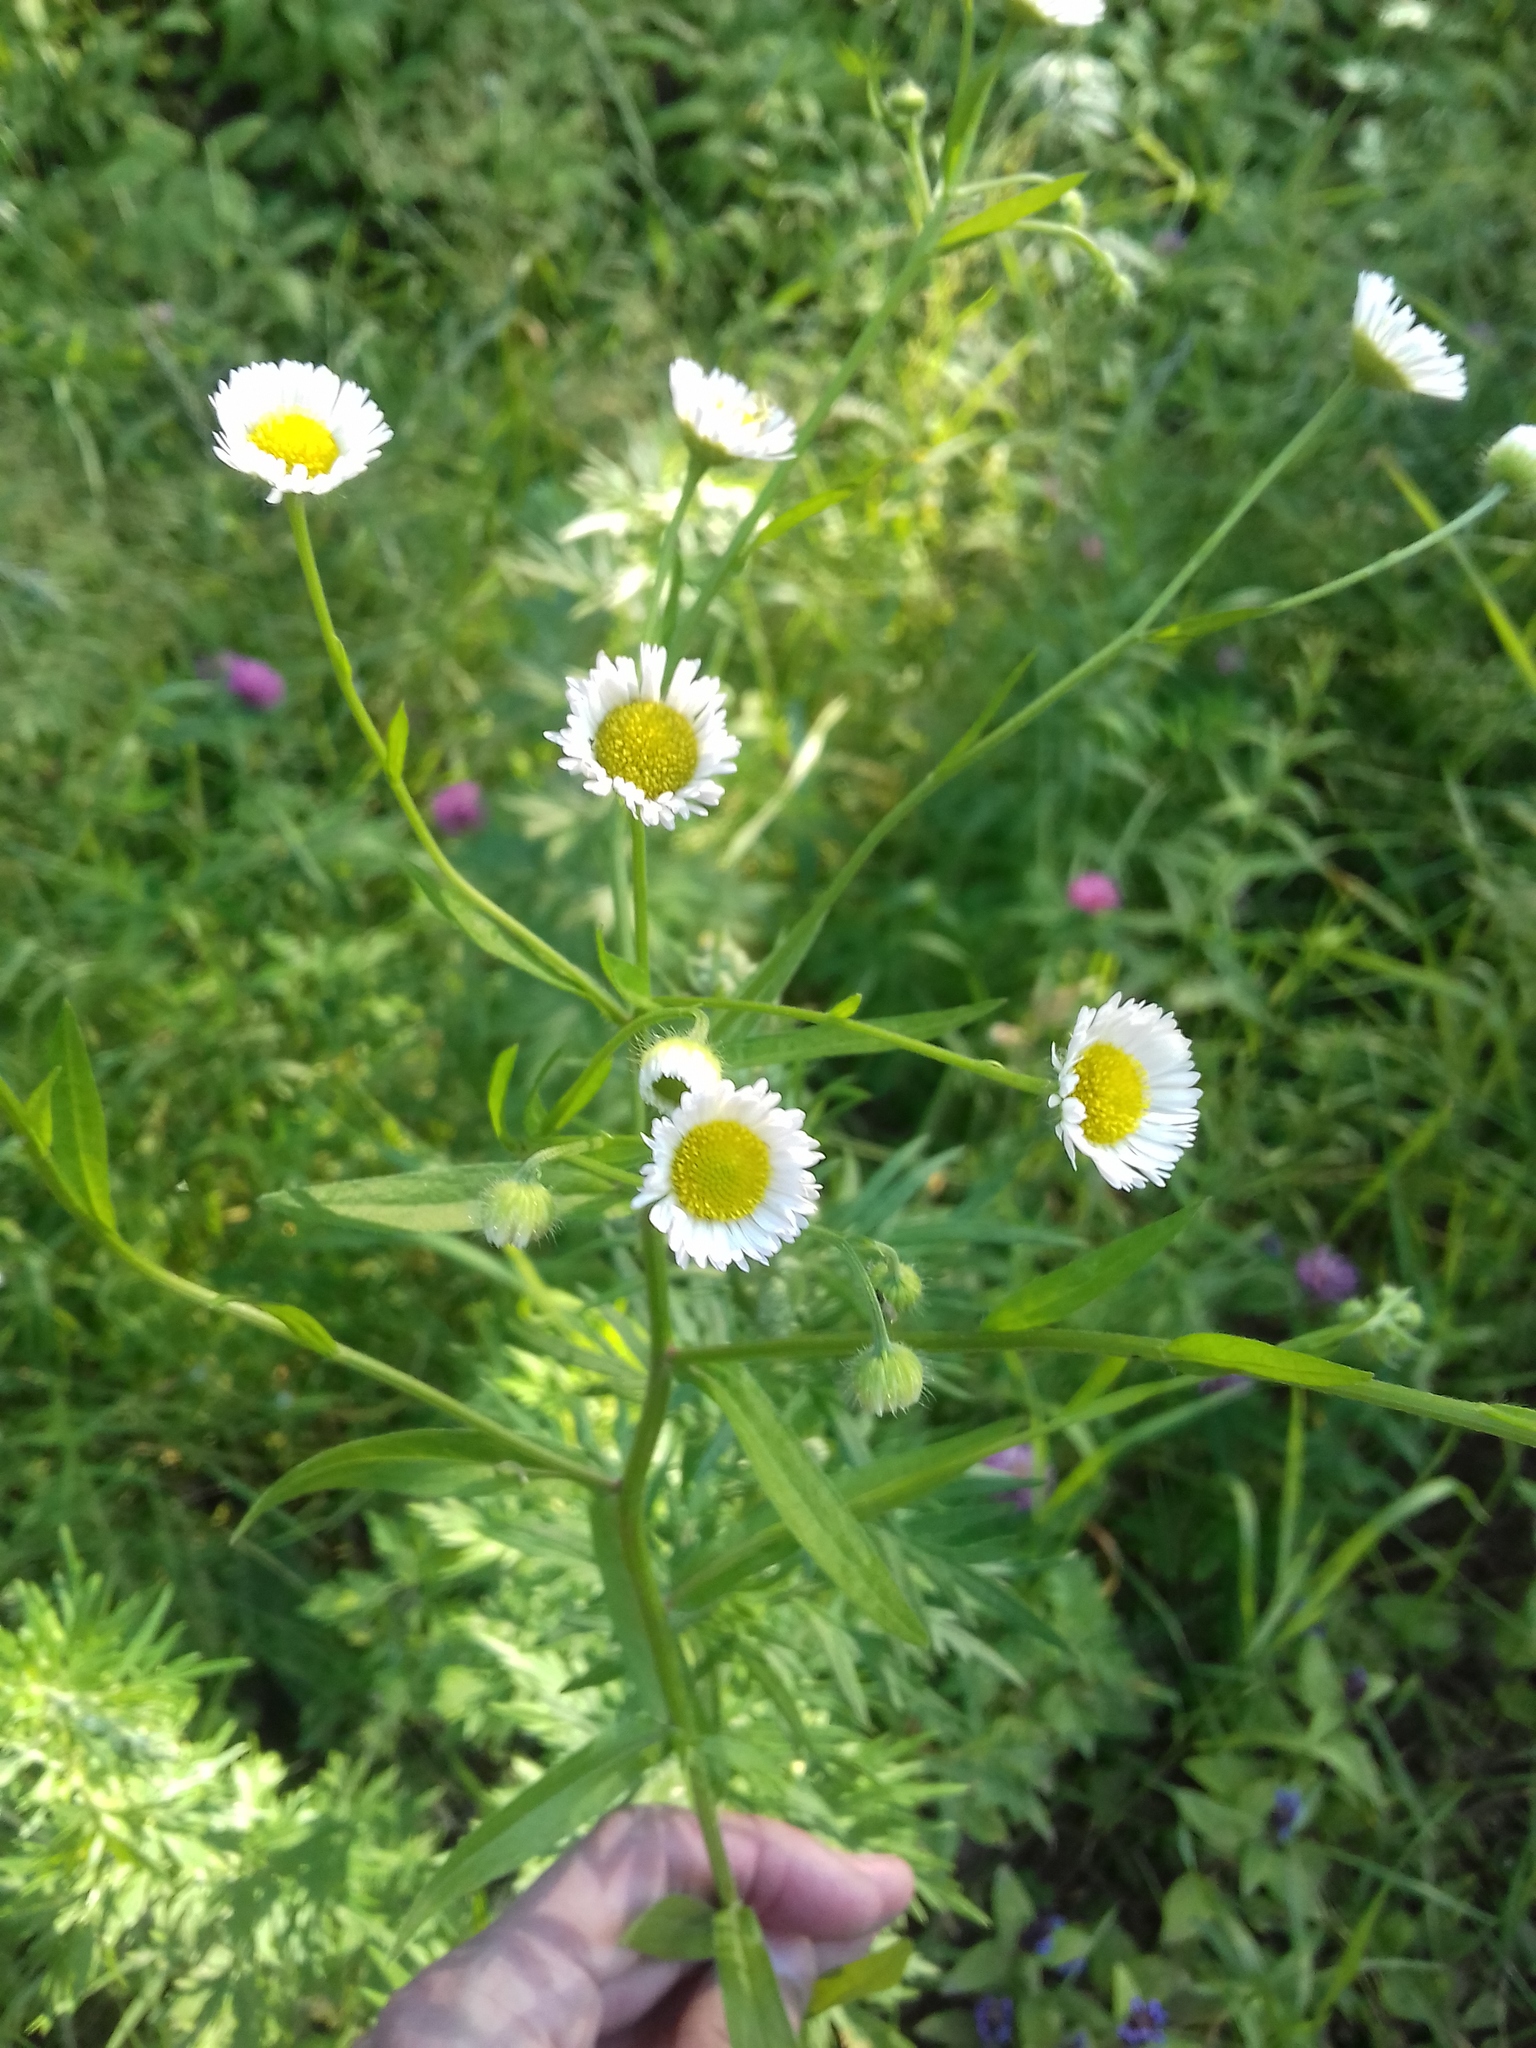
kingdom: Plantae
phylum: Tracheophyta
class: Magnoliopsida
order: Asterales
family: Asteraceae
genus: Erigeron
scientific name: Erigeron annuus
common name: Tall fleabane
